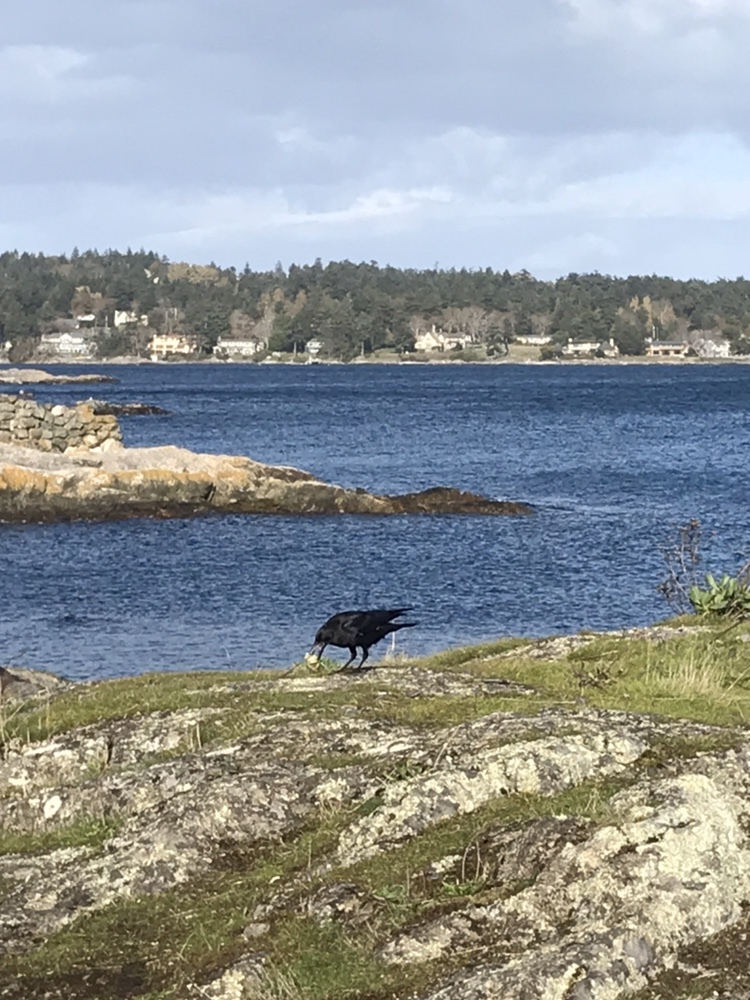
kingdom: Animalia
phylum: Chordata
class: Aves
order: Passeriformes
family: Corvidae
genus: Corvus
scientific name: Corvus brachyrhynchos
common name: American crow
